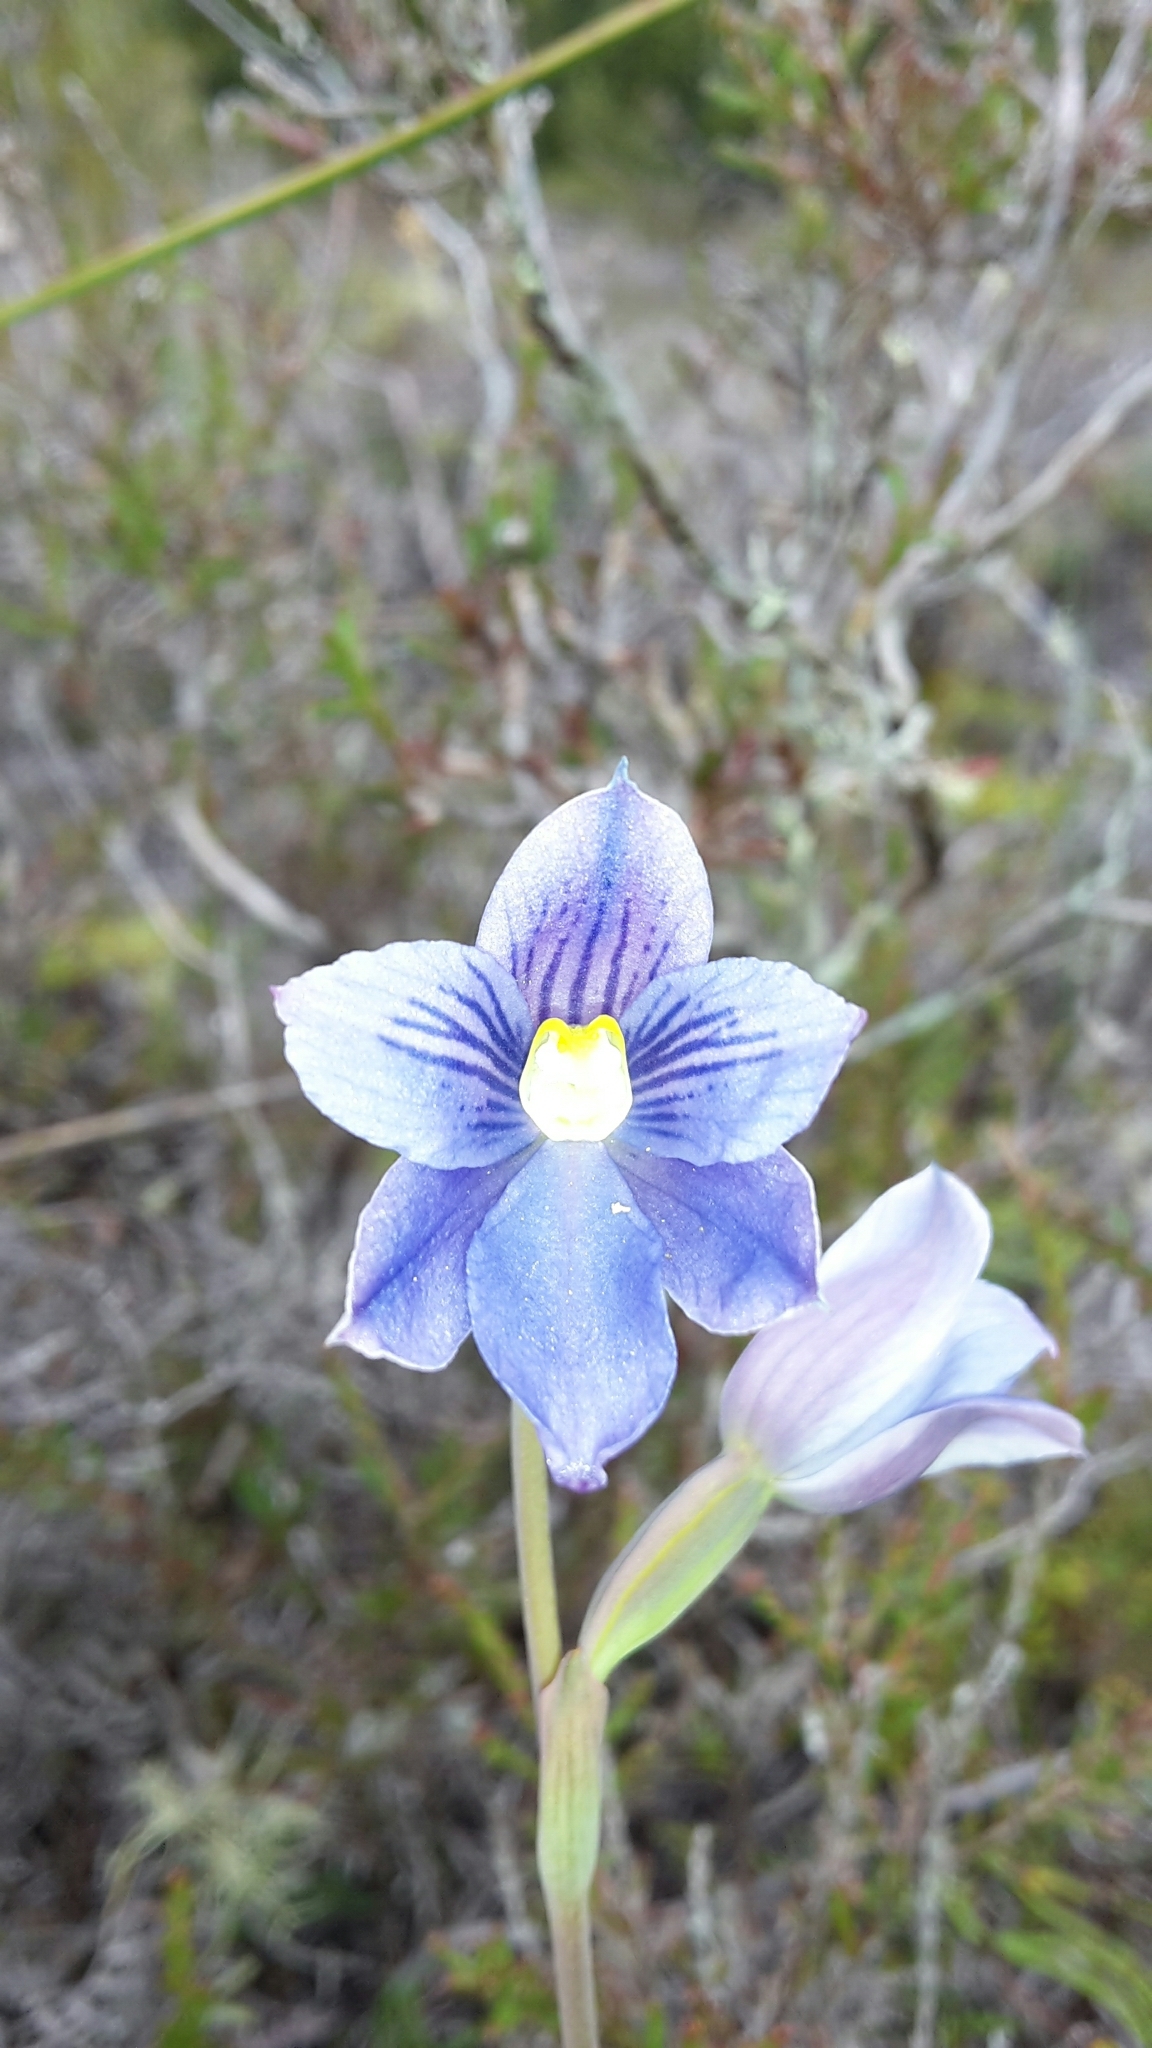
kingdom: Plantae
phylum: Tracheophyta
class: Liliopsida
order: Asparagales
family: Orchidaceae
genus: Thelymitra
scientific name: Thelymitra cyanea
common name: Blue sun-orchid
